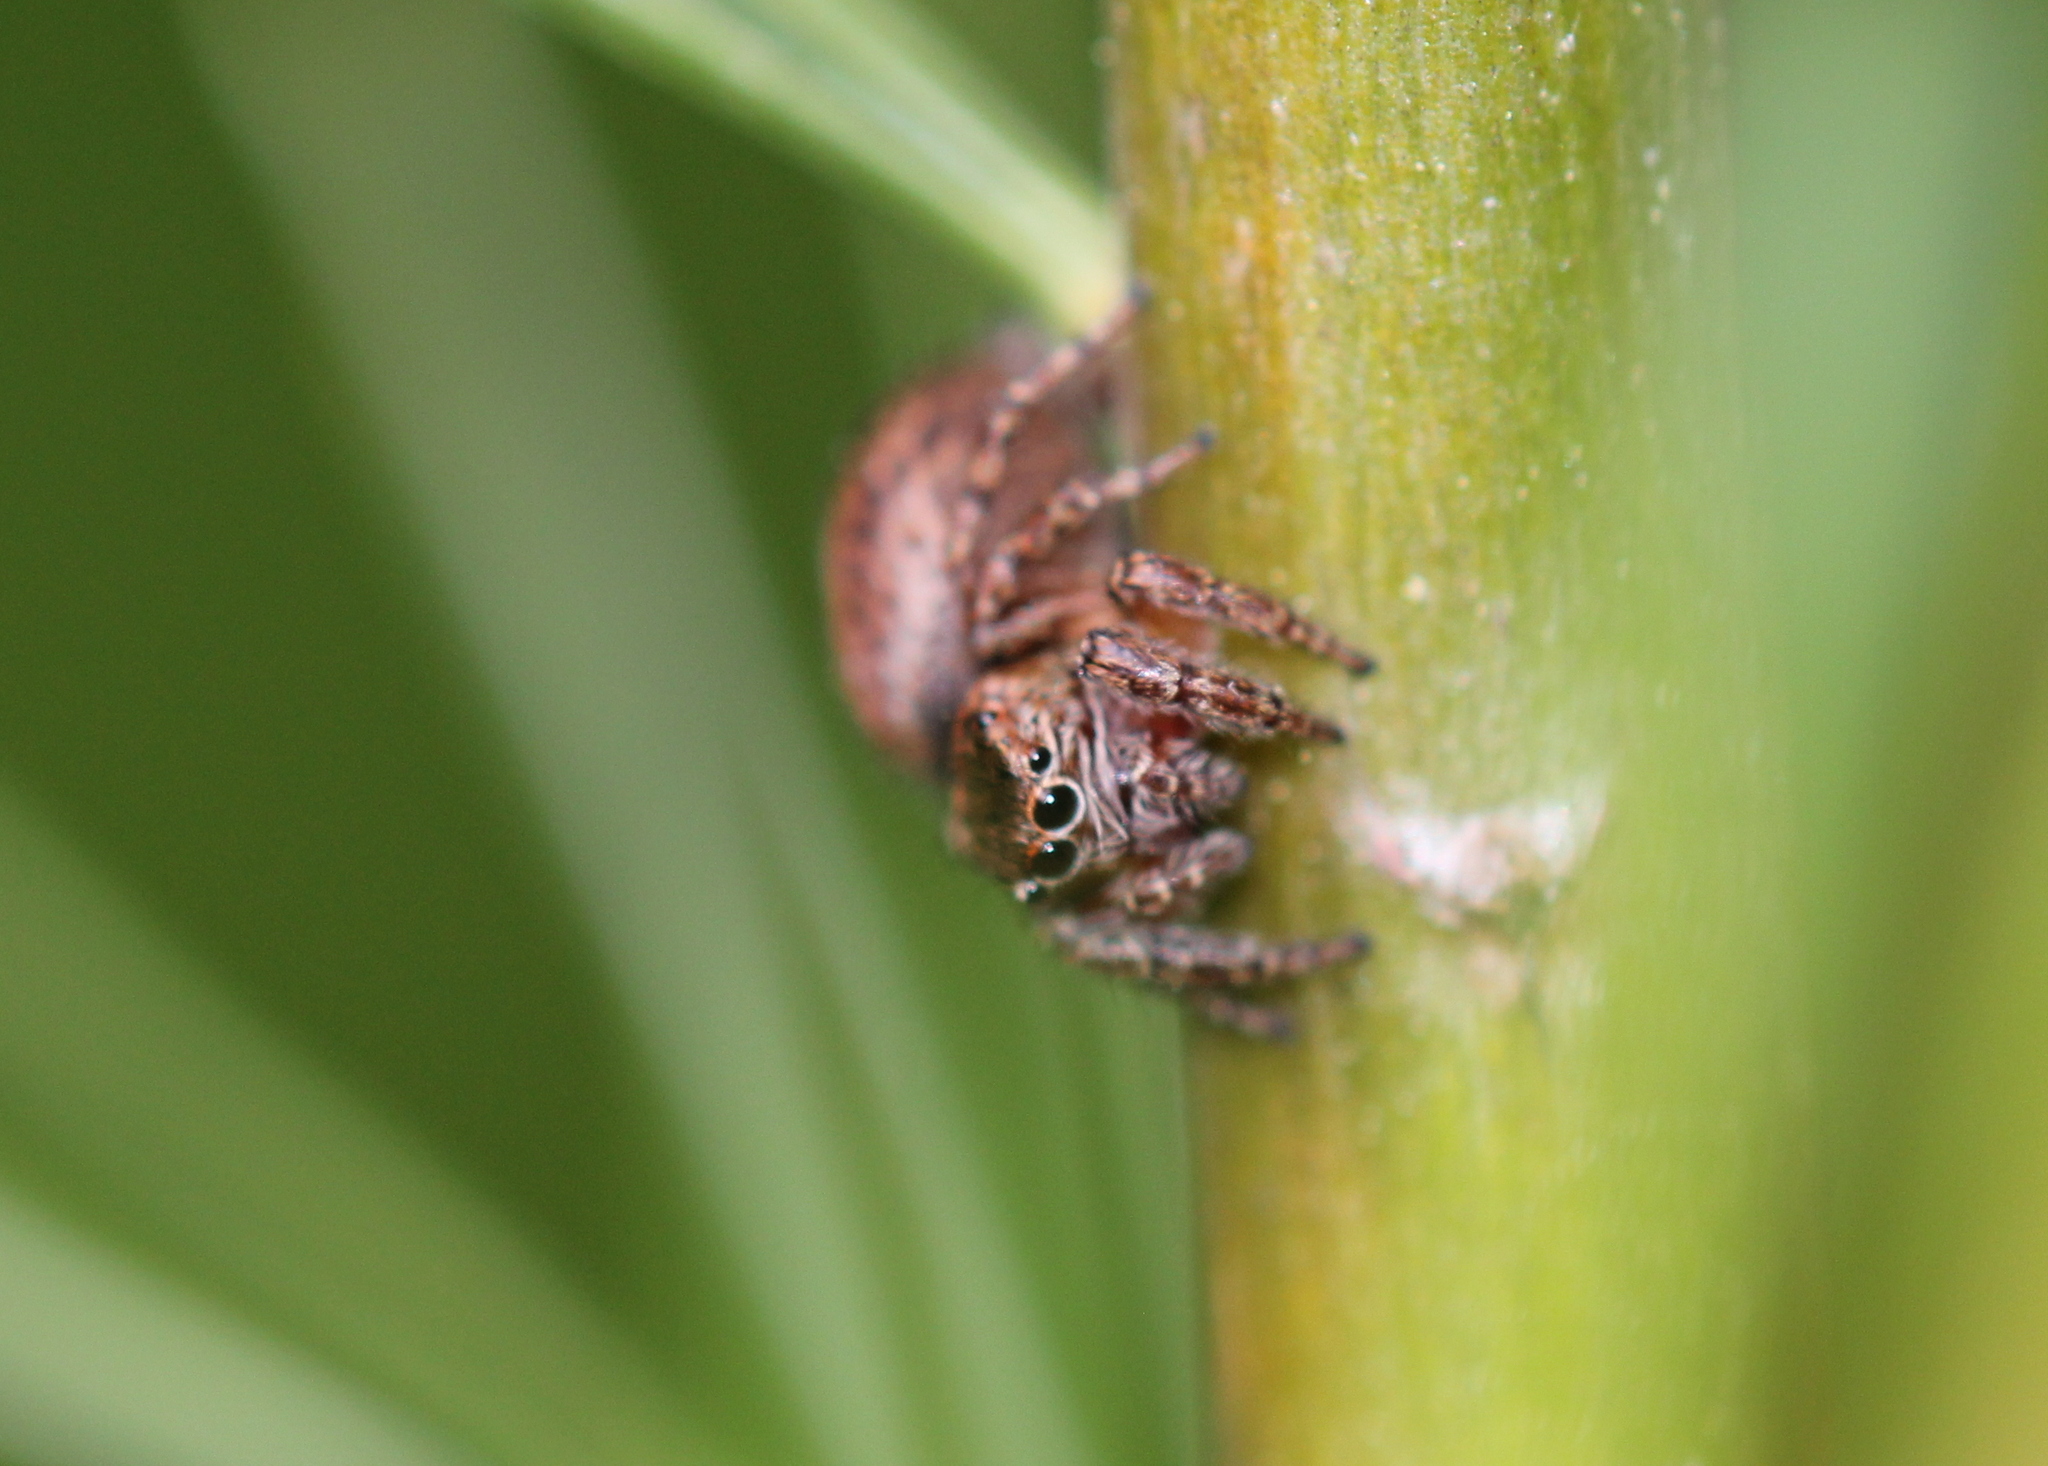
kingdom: Animalia
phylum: Arthropoda
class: Arachnida
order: Araneae
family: Salticidae
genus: Evarcha
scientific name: Evarcha hoyi
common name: Hoy's jumping spider
